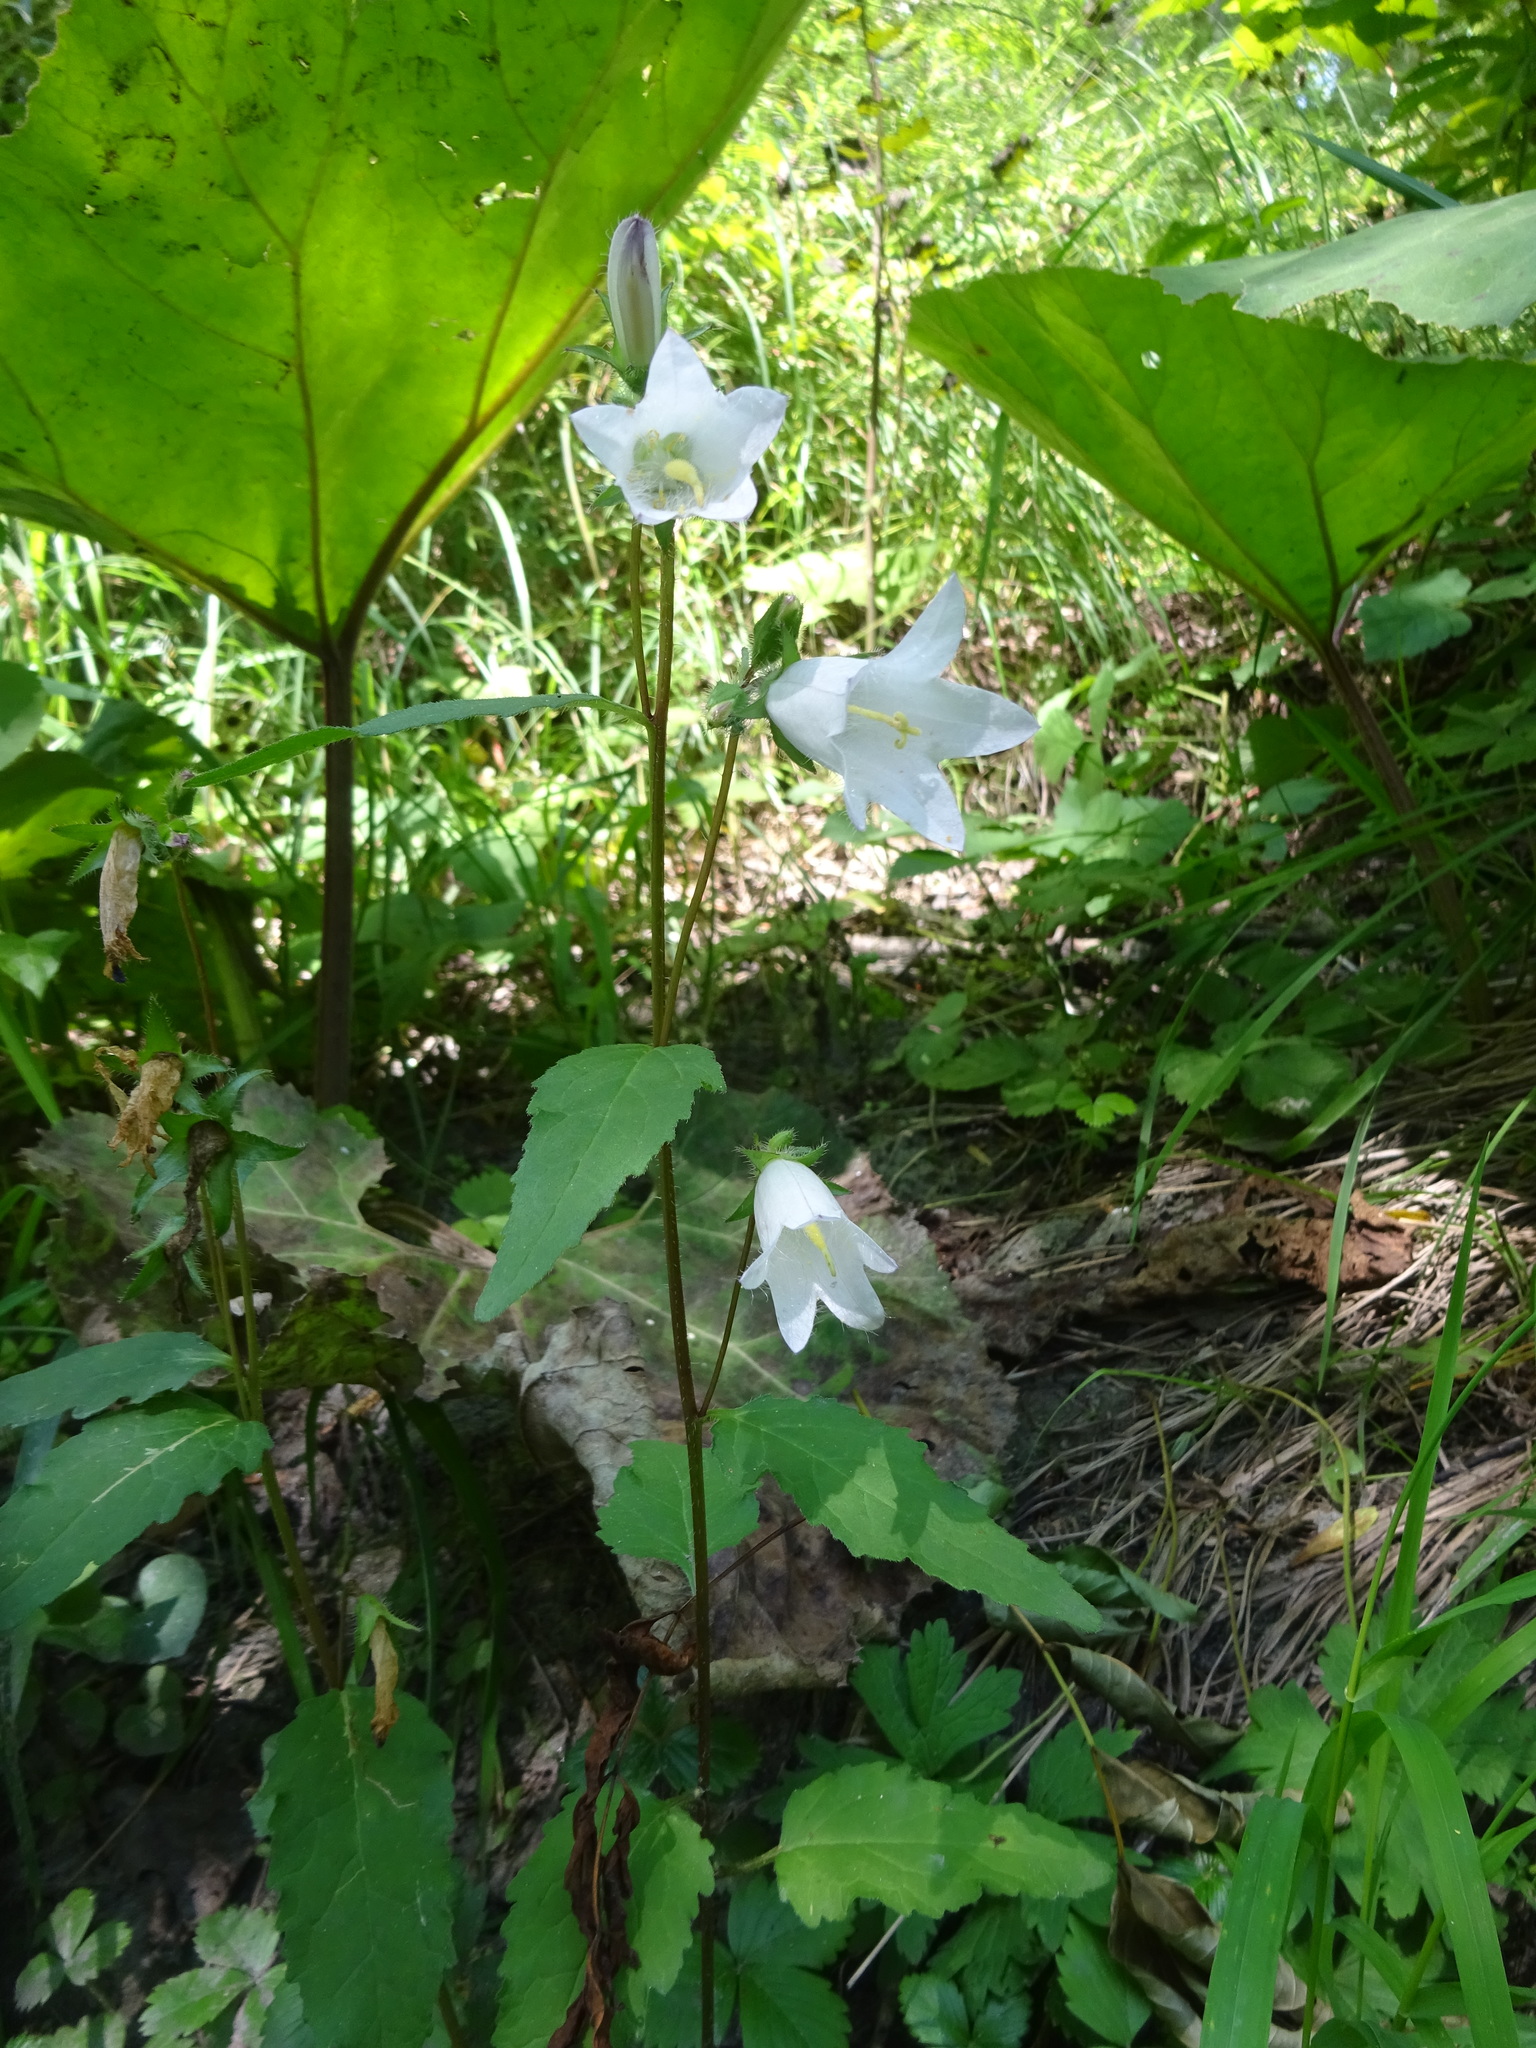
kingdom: Plantae
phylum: Tracheophyta
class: Magnoliopsida
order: Asterales
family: Campanulaceae
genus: Campanula
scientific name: Campanula trachelium
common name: Nettle-leaved bellflower
